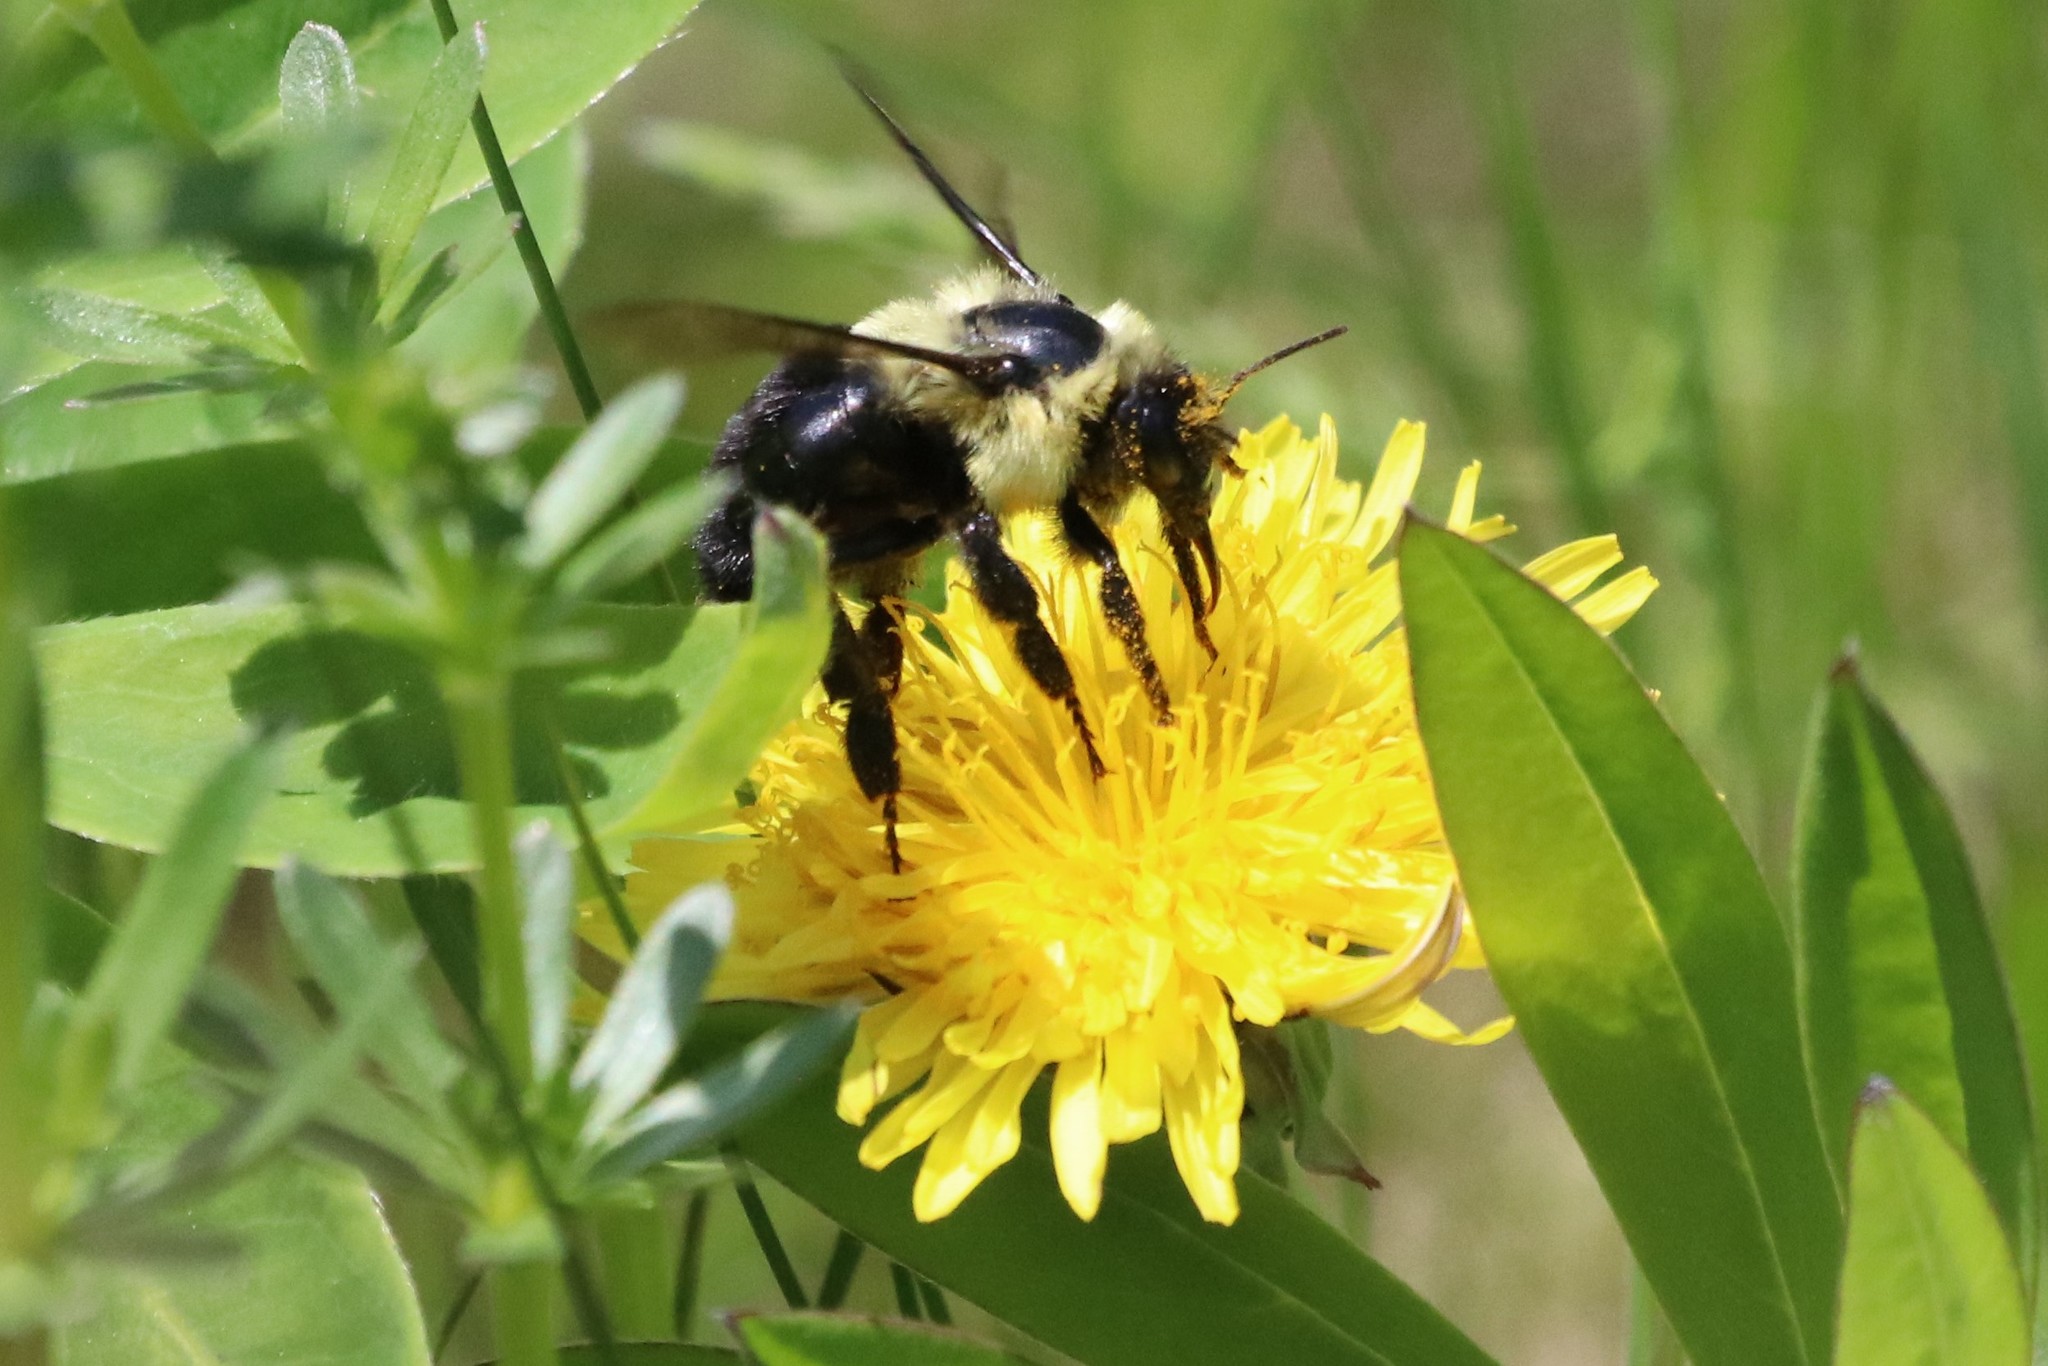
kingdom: Animalia
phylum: Arthropoda
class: Insecta
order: Hymenoptera
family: Apidae
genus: Bombus
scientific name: Bombus impatiens
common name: Common eastern bumble bee
